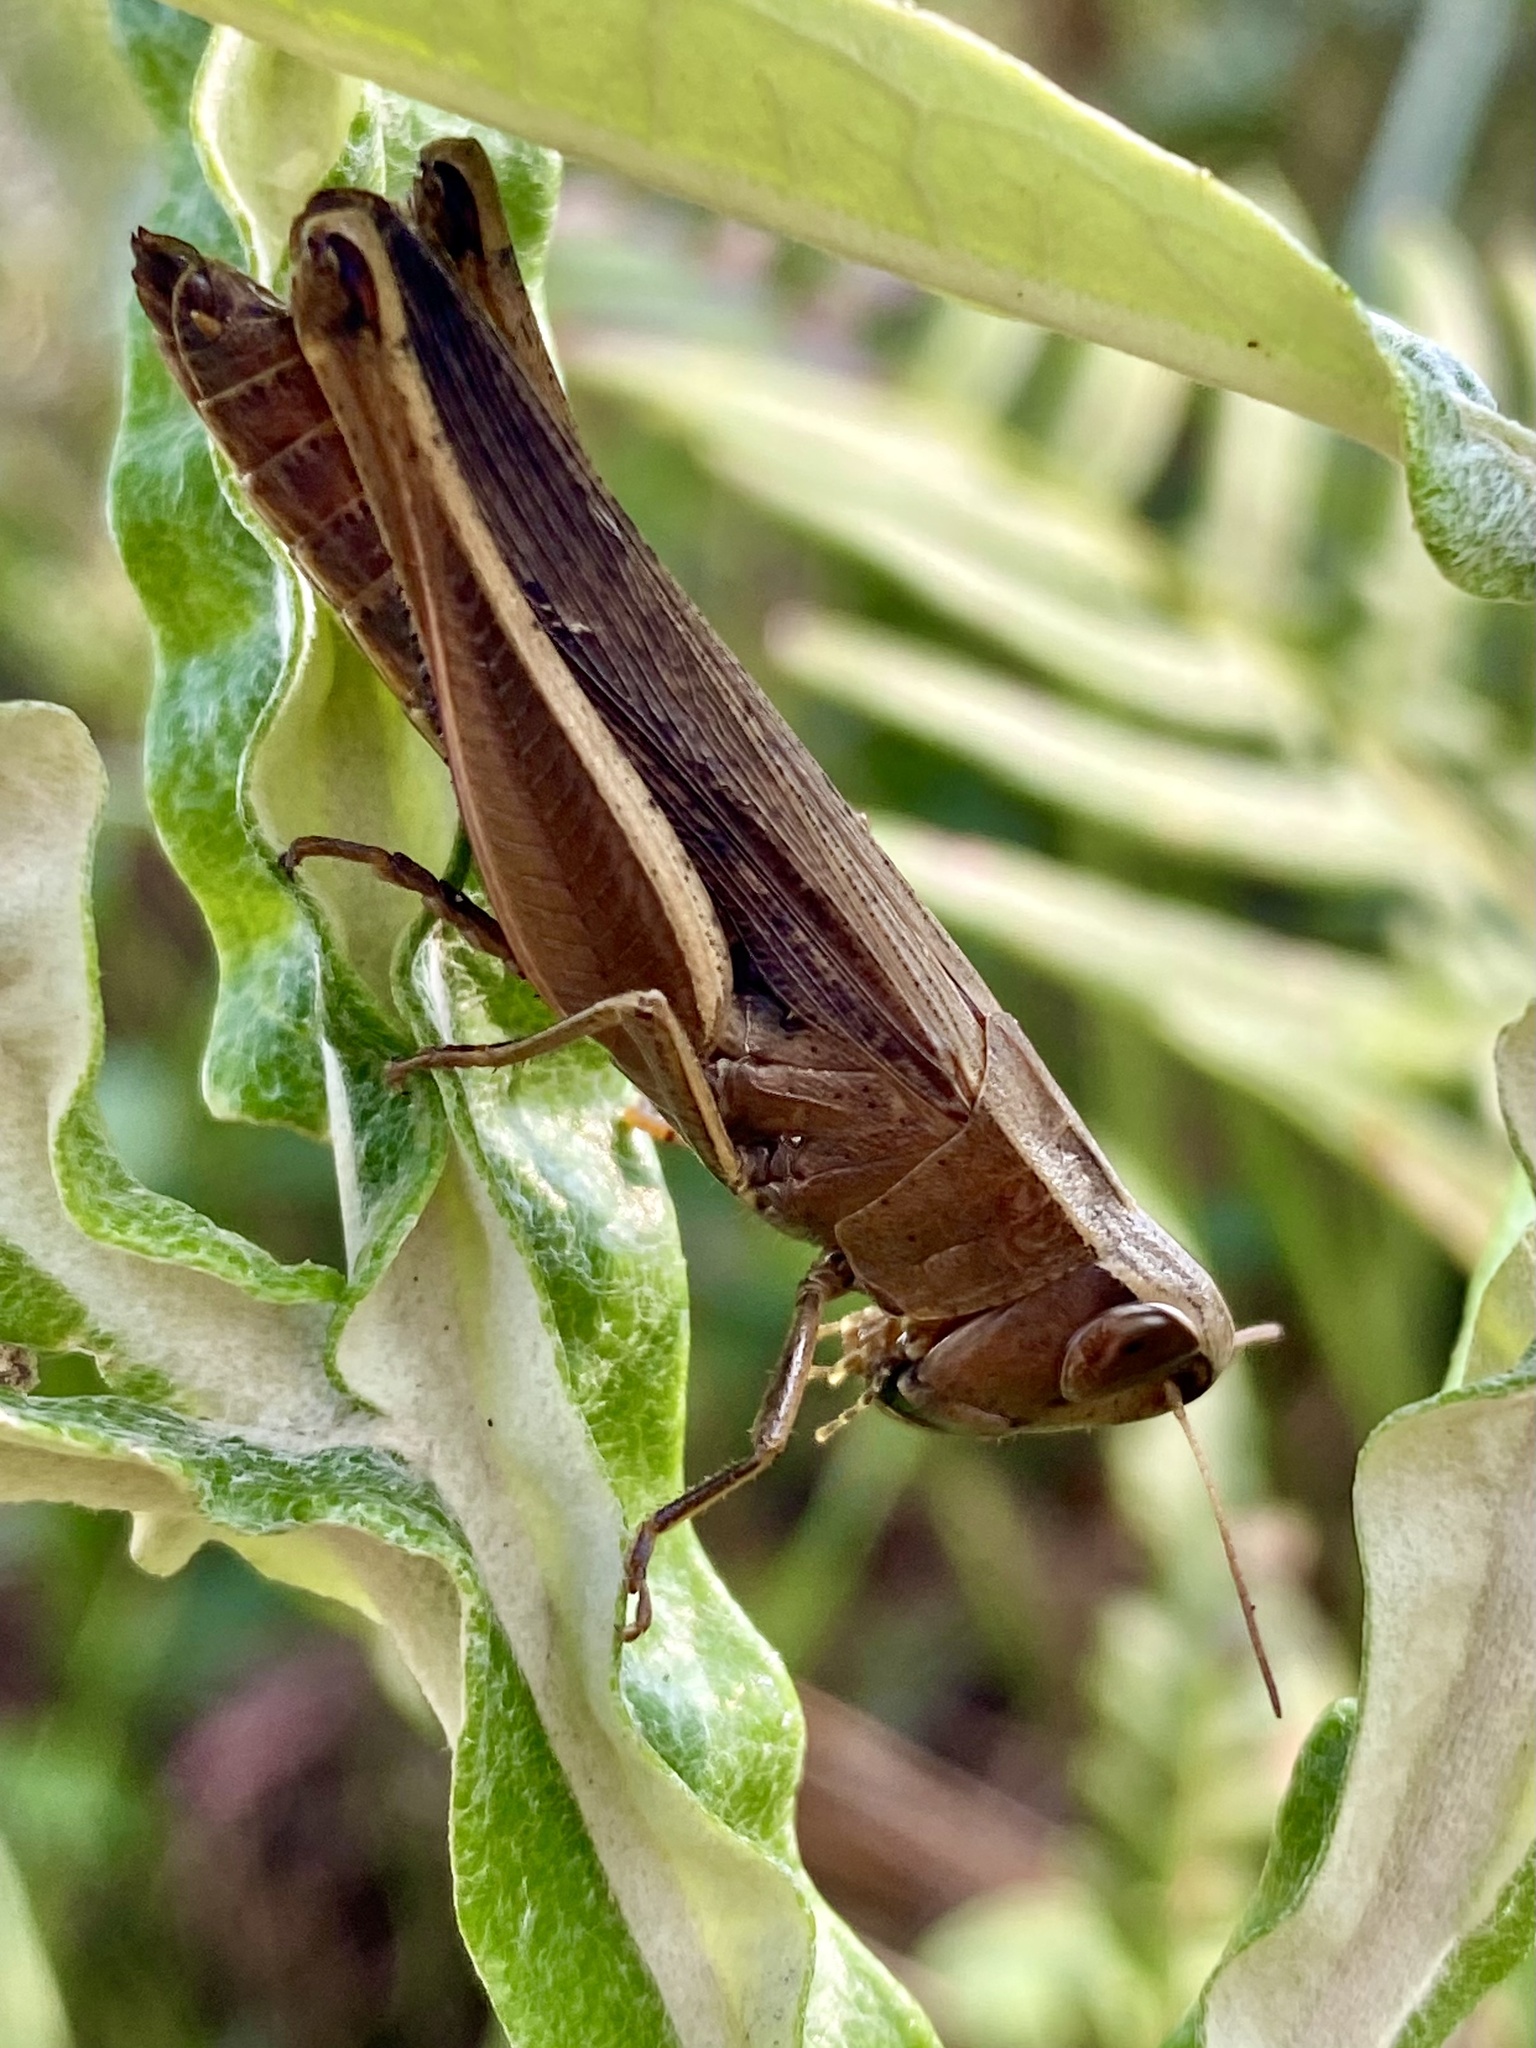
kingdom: Animalia
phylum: Arthropoda
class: Insecta
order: Orthoptera
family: Acrididae
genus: Amblytropidia
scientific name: Amblytropidia mysteca
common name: Brown winter grasshopper
